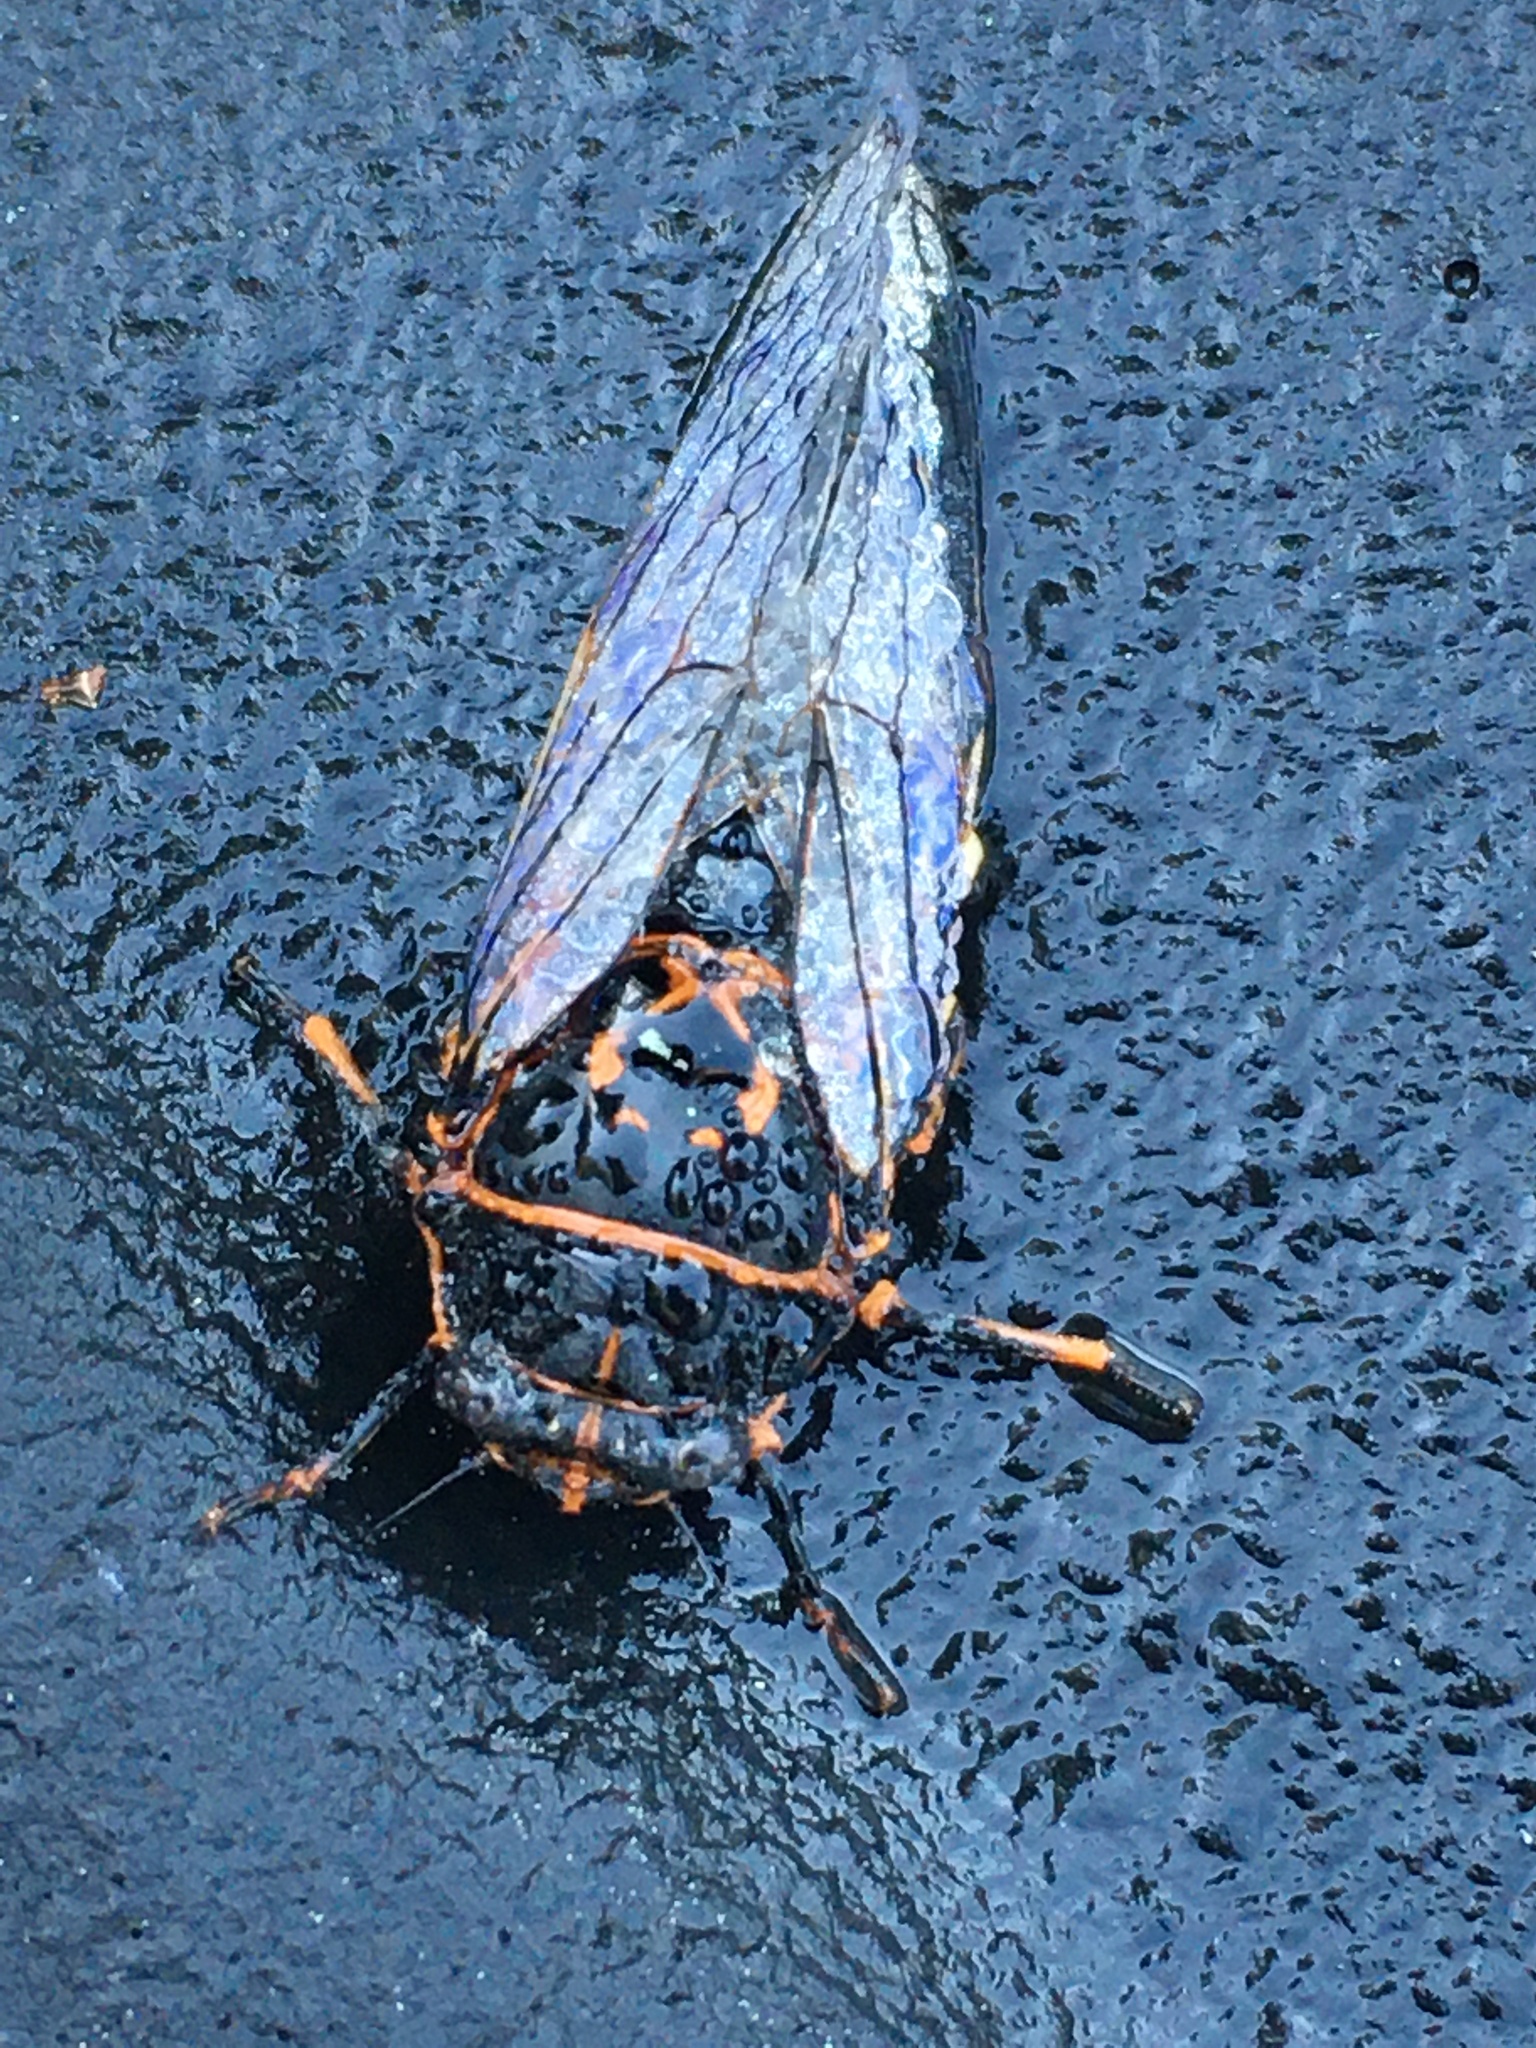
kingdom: Animalia
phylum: Arthropoda
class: Insecta
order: Hemiptera
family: Cicadidae
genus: Okanagana
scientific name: Okanagana bella
